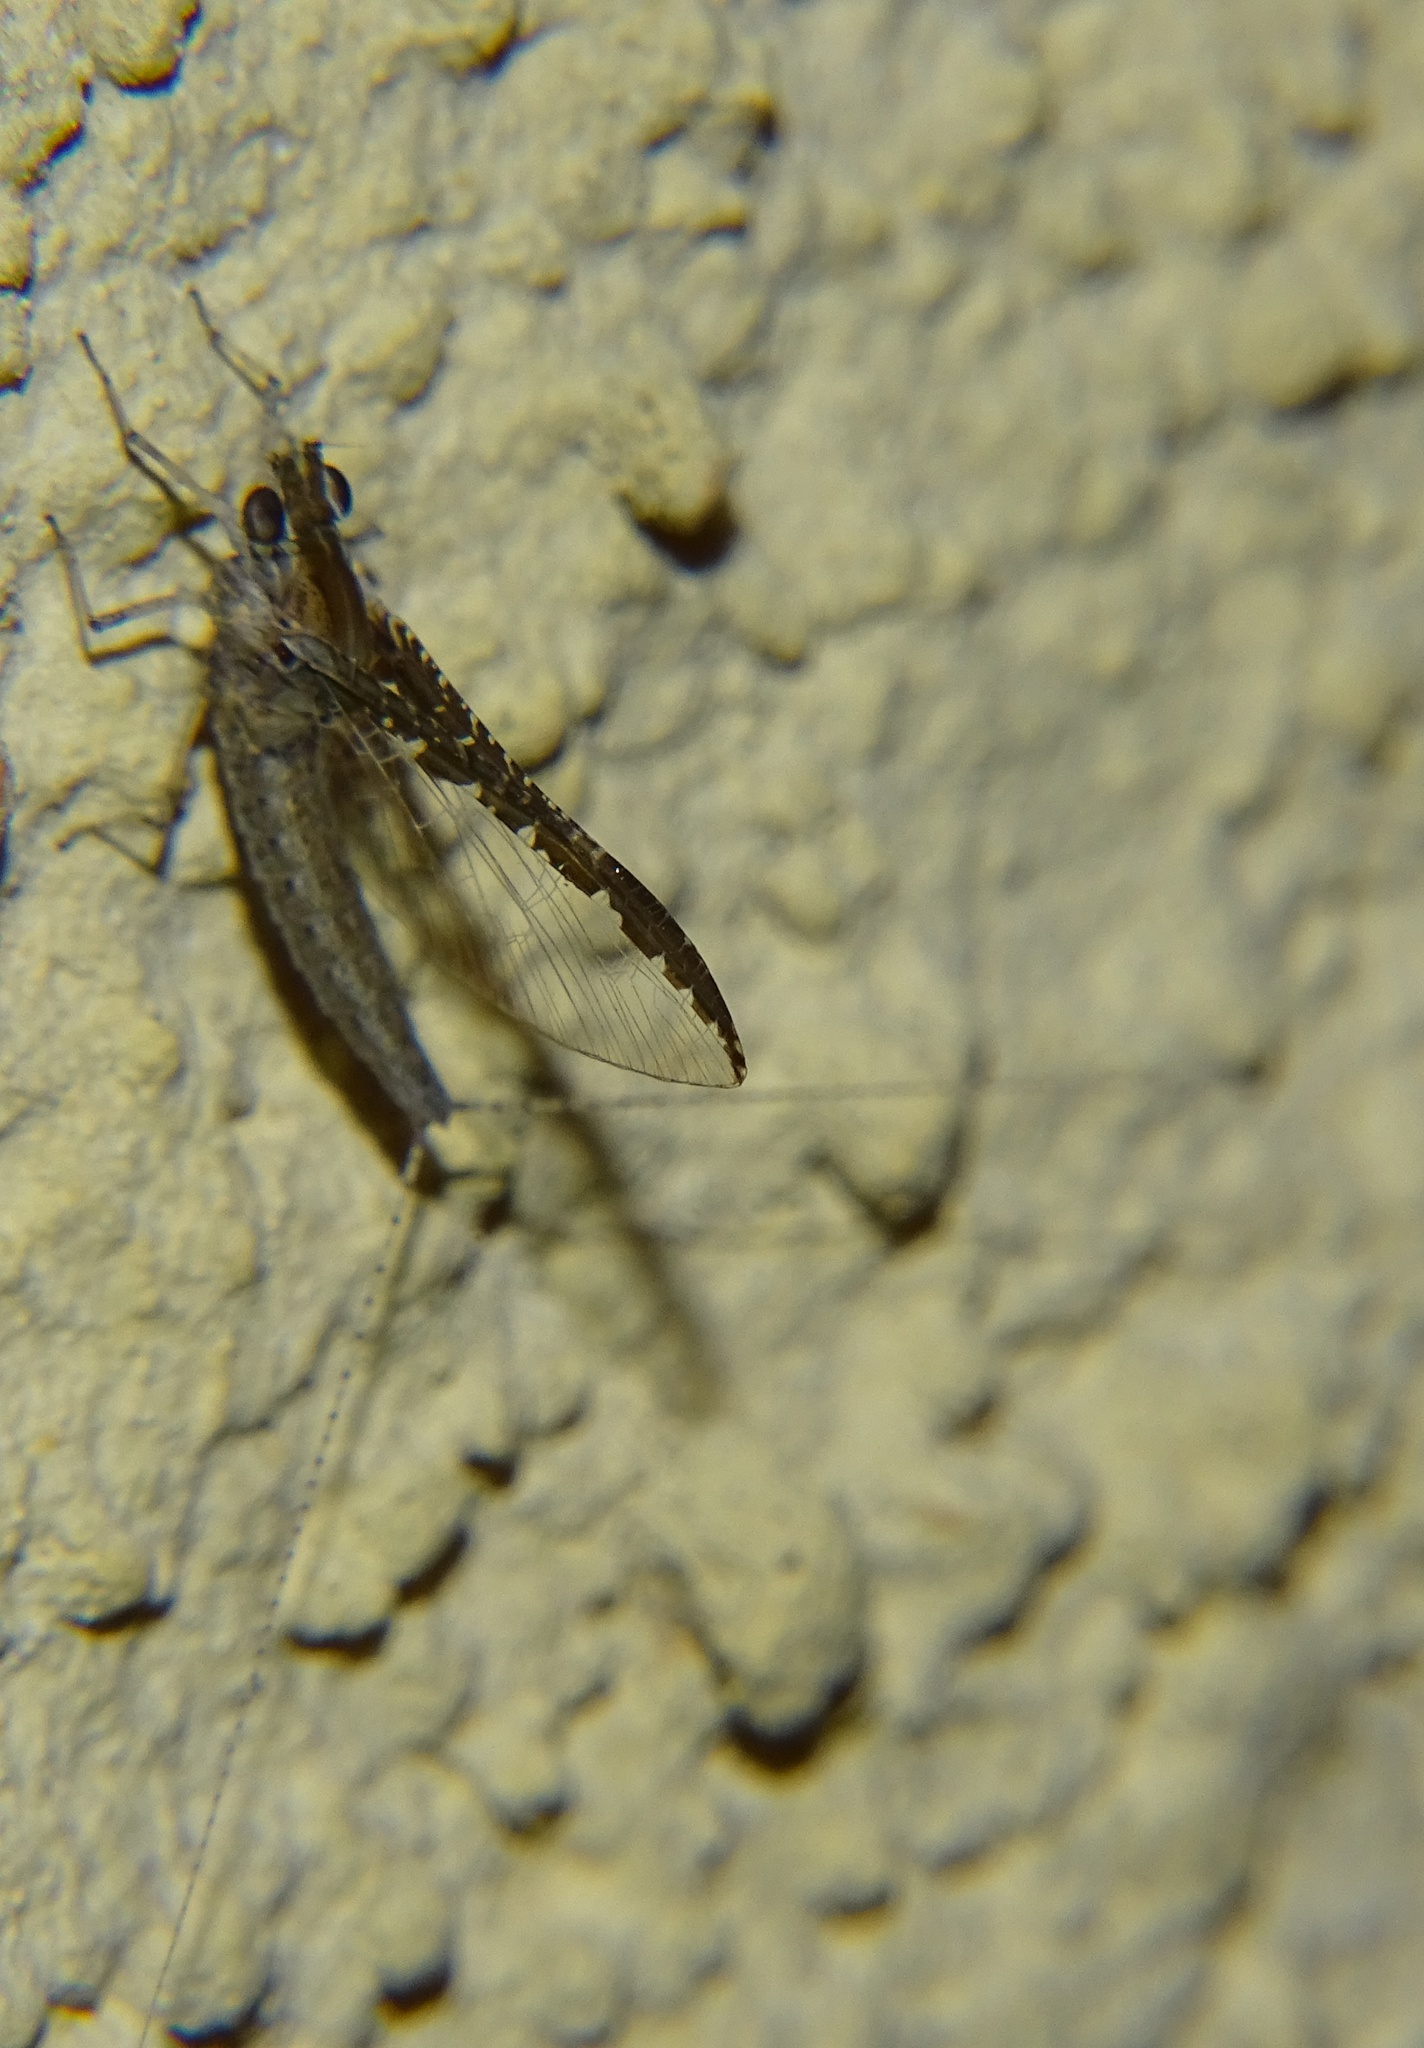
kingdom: Animalia
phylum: Arthropoda
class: Insecta
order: Ephemeroptera
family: Baetidae
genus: Callibaetis
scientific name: Callibaetis californicus
